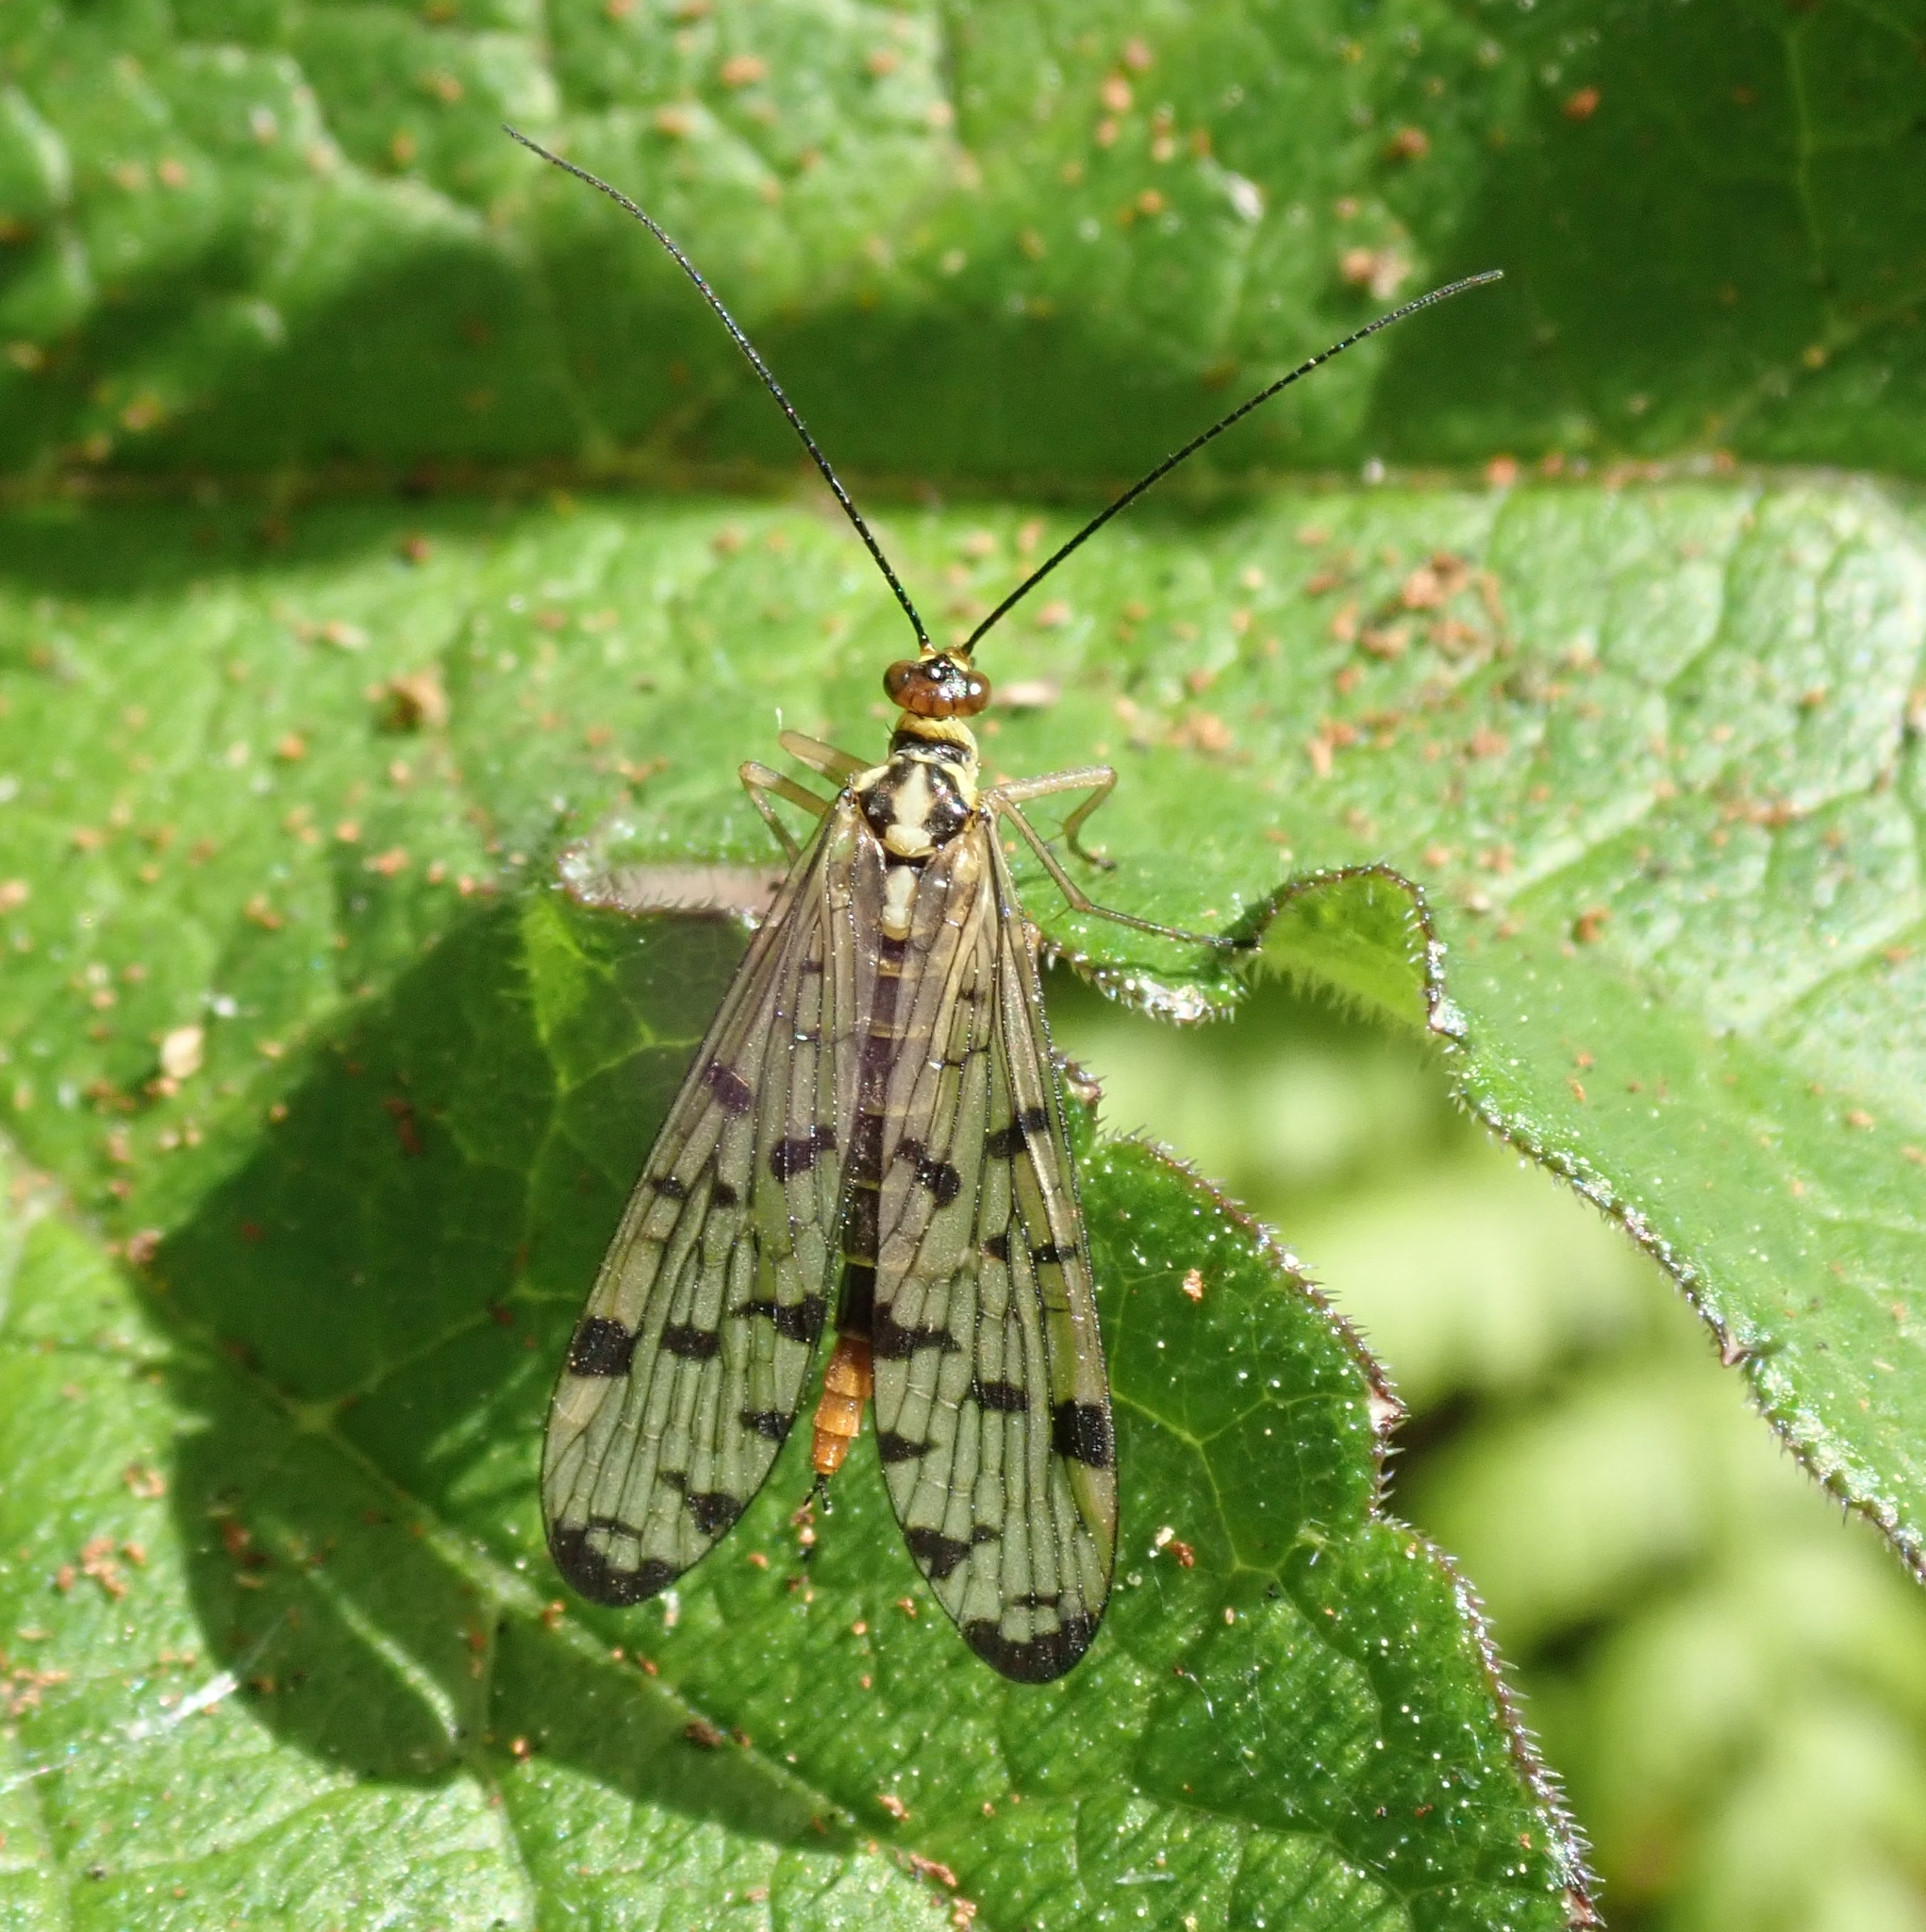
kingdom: Animalia
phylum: Arthropoda
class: Insecta
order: Mecoptera
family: Panorpidae
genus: Panorpa
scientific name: Panorpa germanica
